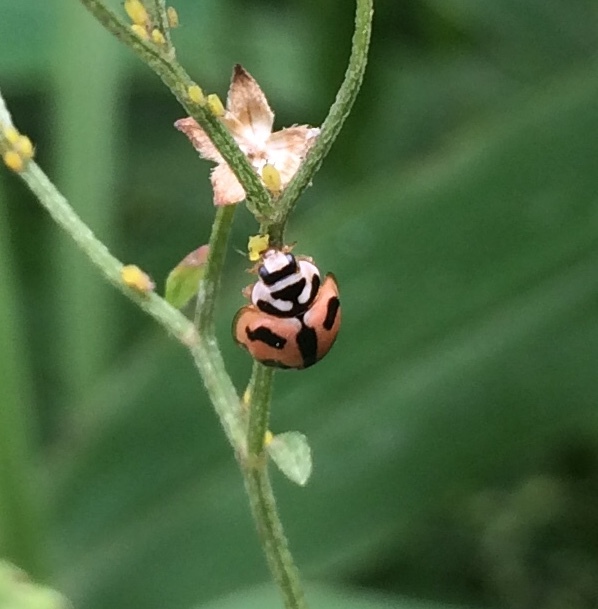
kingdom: Animalia
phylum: Arthropoda
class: Insecta
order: Coleoptera
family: Coccinellidae
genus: Cheilomenes
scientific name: Cheilomenes sexmaculata
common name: Ladybird beetle
